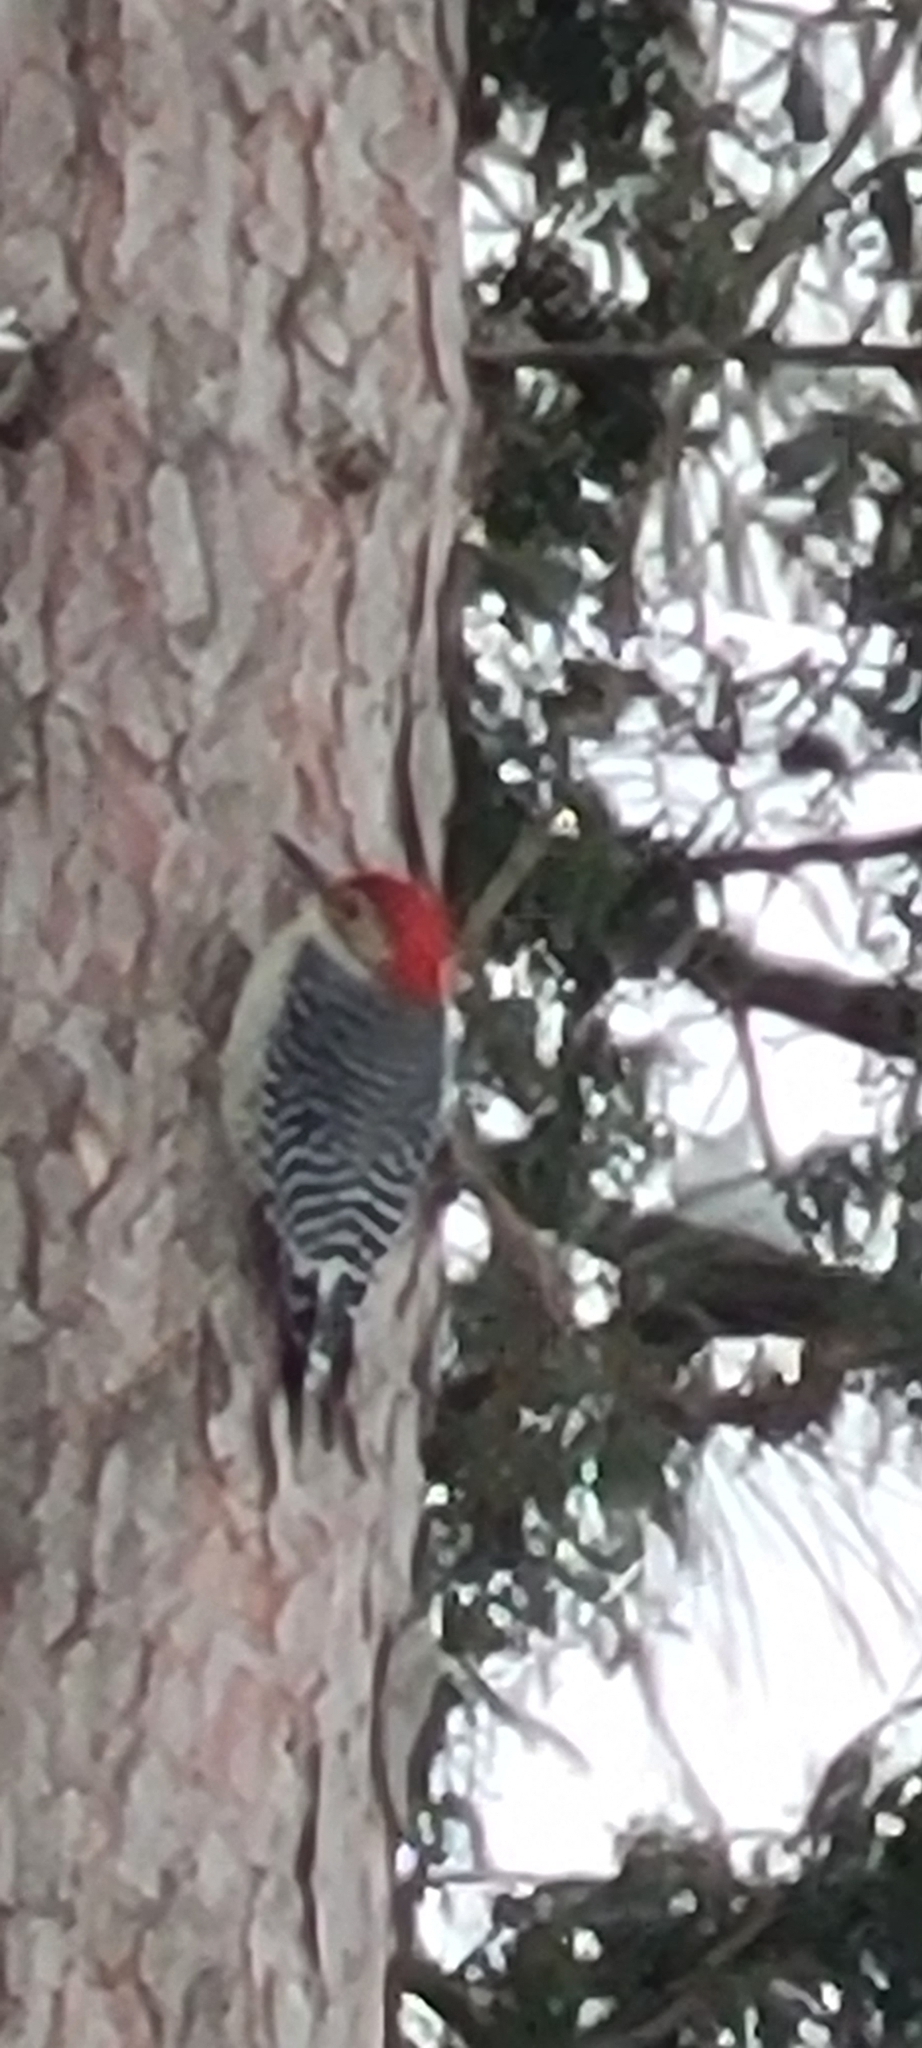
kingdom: Animalia
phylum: Chordata
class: Aves
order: Piciformes
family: Picidae
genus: Melanerpes
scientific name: Melanerpes carolinus
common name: Red-bellied woodpecker
